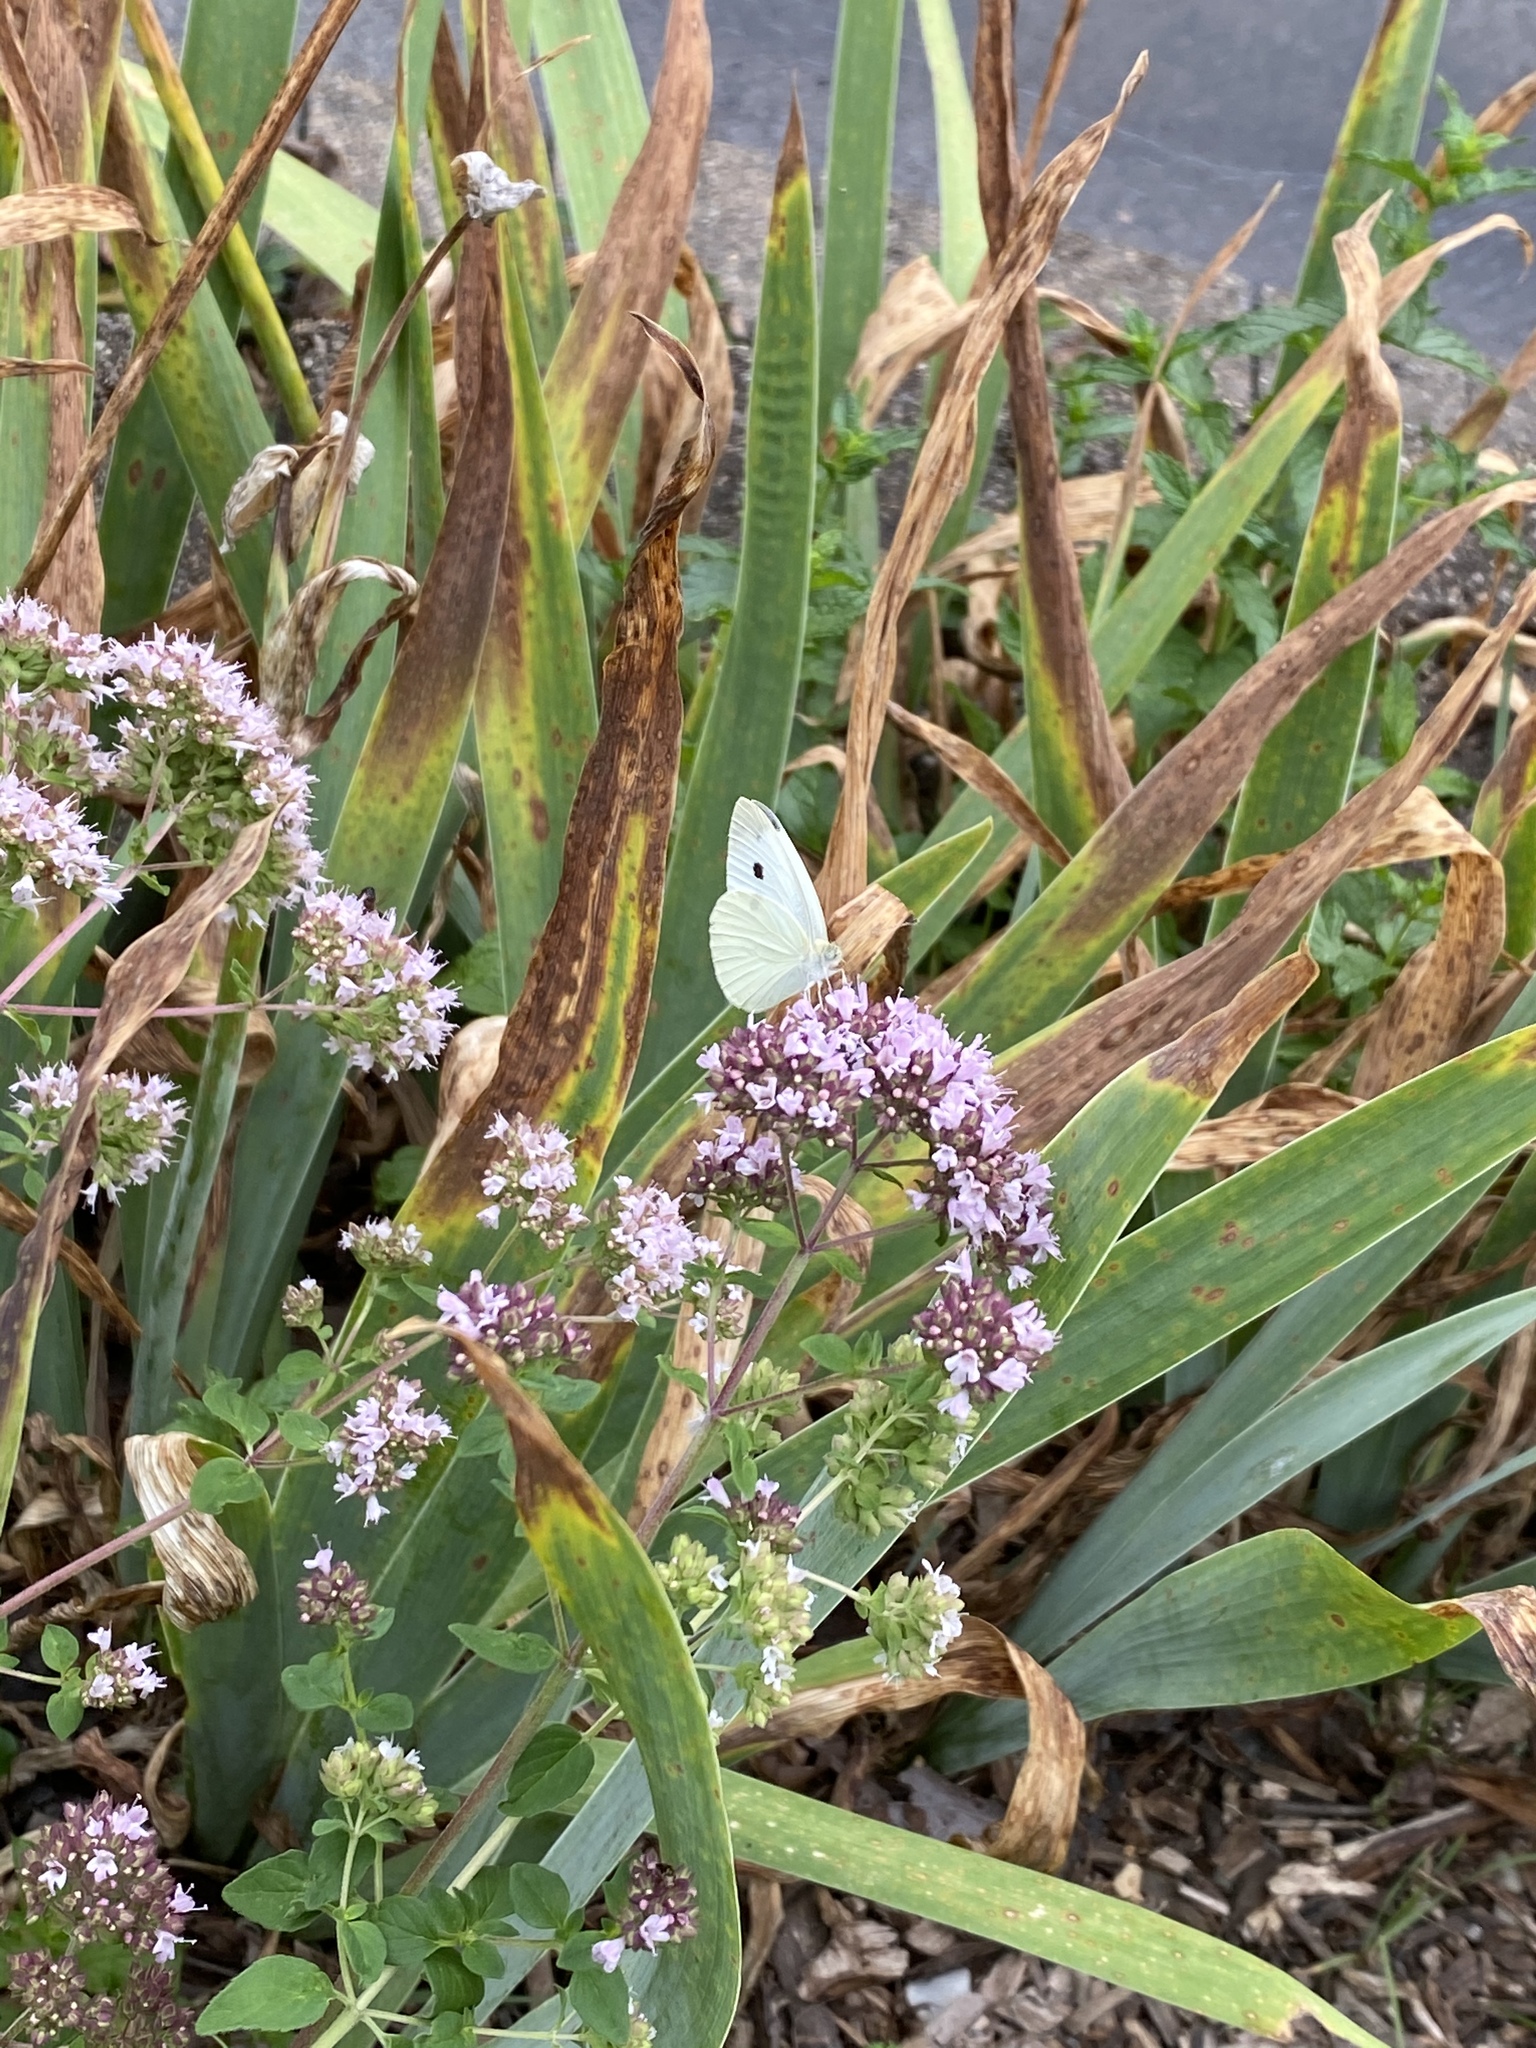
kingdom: Animalia
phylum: Arthropoda
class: Insecta
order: Lepidoptera
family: Pieridae
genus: Pieris
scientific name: Pieris rapae
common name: Small white
